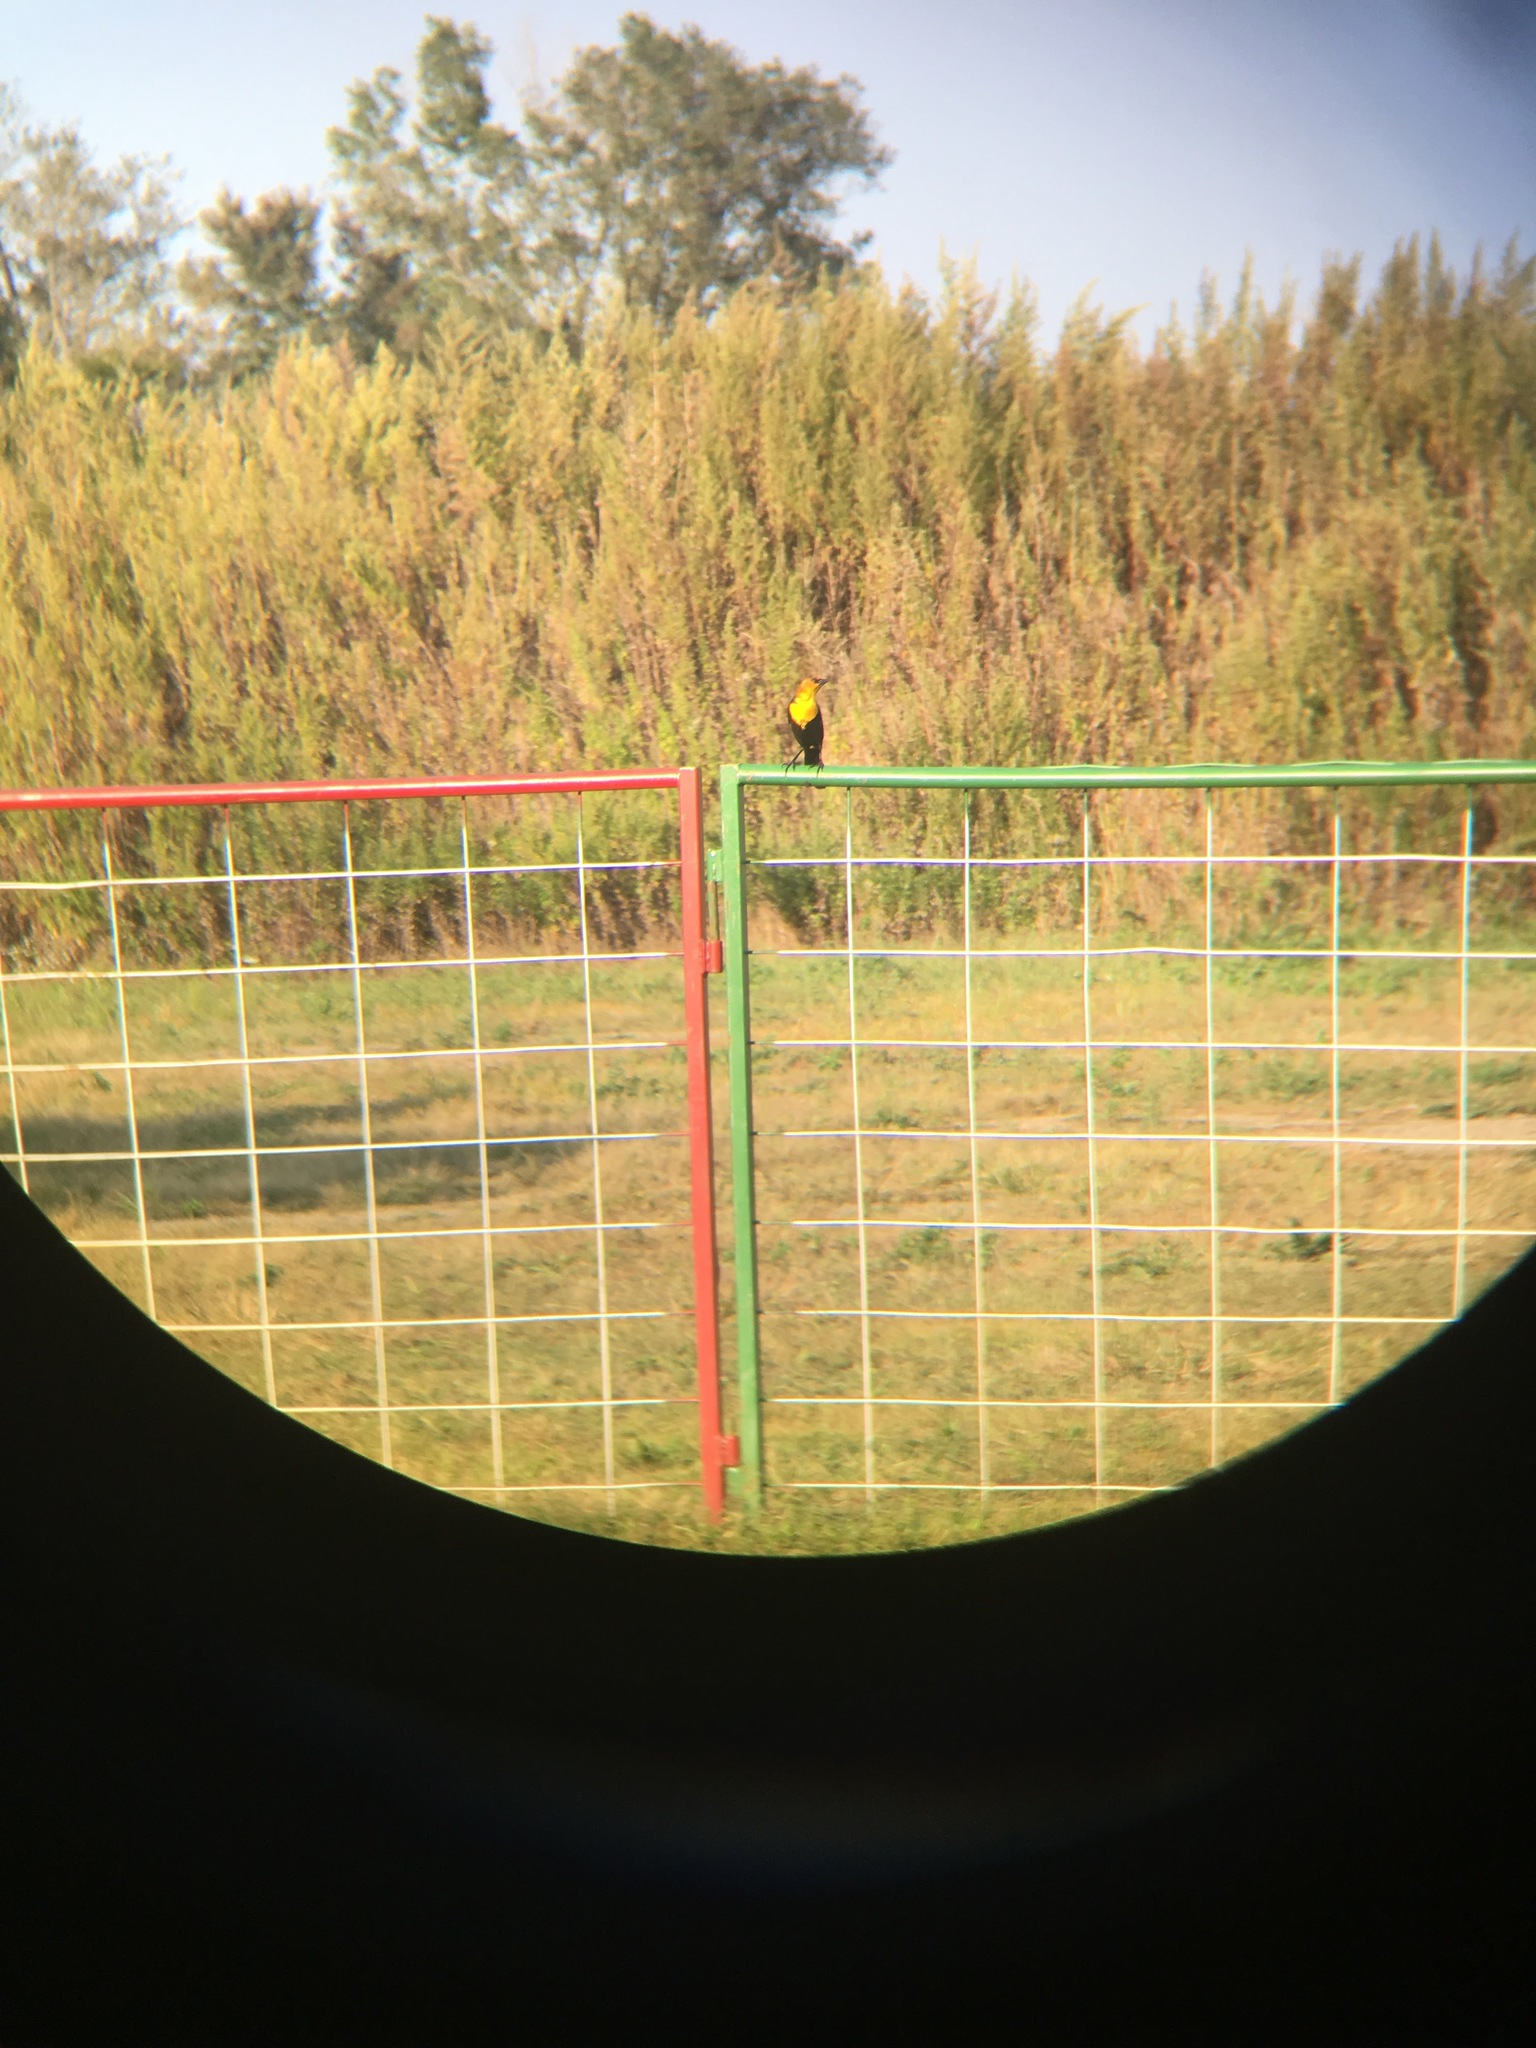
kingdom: Animalia
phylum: Chordata
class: Aves
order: Passeriformes
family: Icteridae
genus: Xanthocephalus
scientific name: Xanthocephalus xanthocephalus
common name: Yellow-headed blackbird
